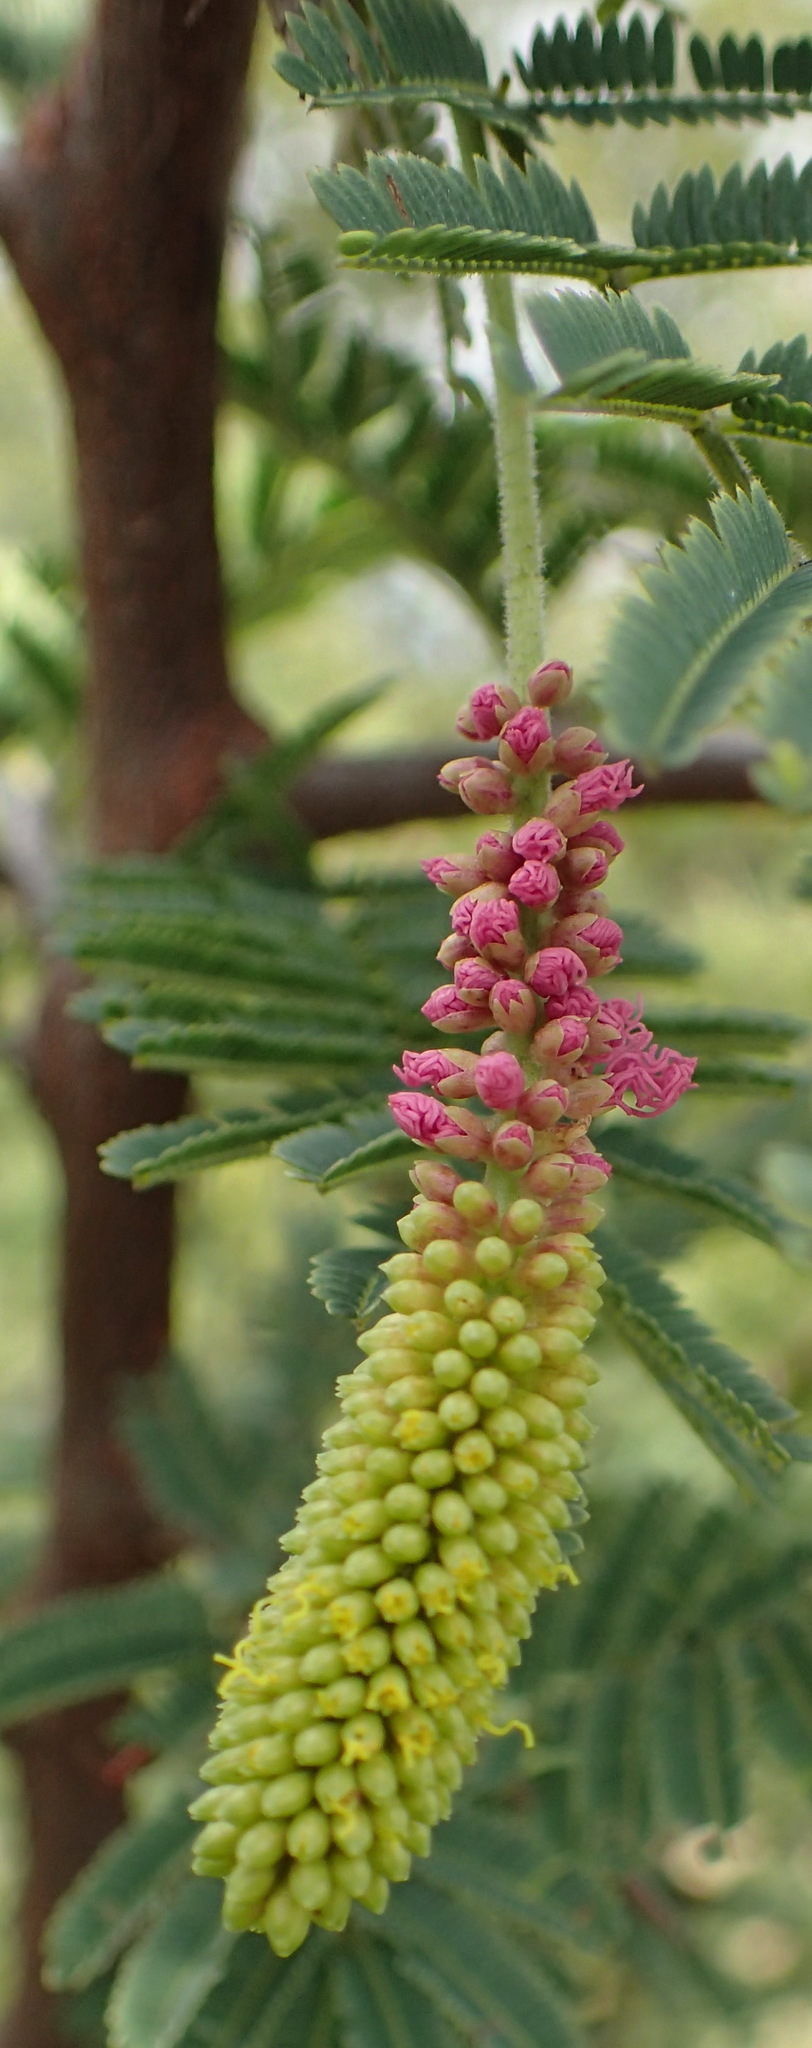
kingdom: Plantae
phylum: Tracheophyta
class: Magnoliopsida
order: Fabales
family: Fabaceae
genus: Dichrostachys
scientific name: Dichrostachys cinerea
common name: Sicklebush
